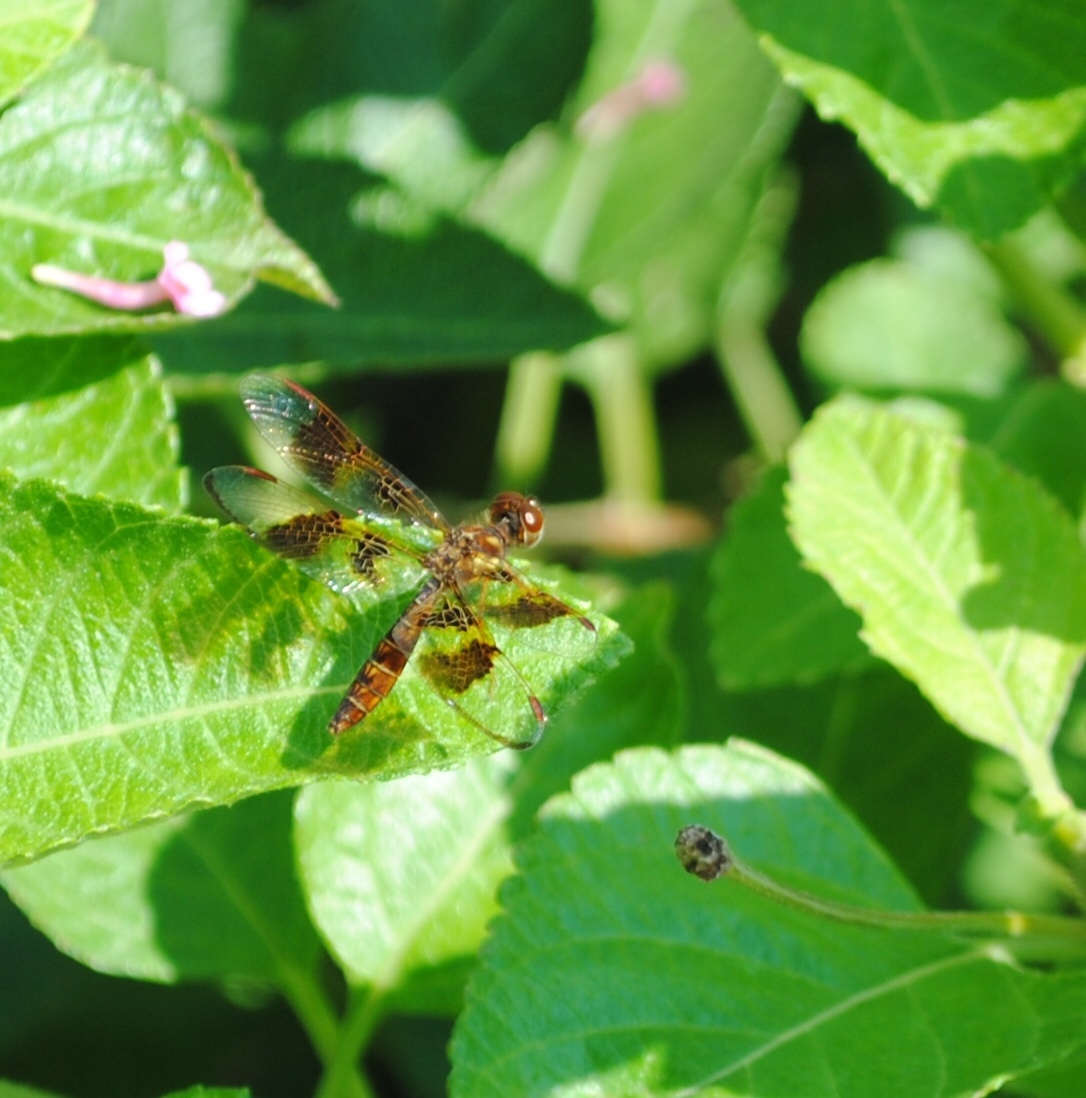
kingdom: Animalia
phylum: Arthropoda
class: Insecta
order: Odonata
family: Libellulidae
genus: Perithemis
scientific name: Perithemis tenera
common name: Eastern amberwing
